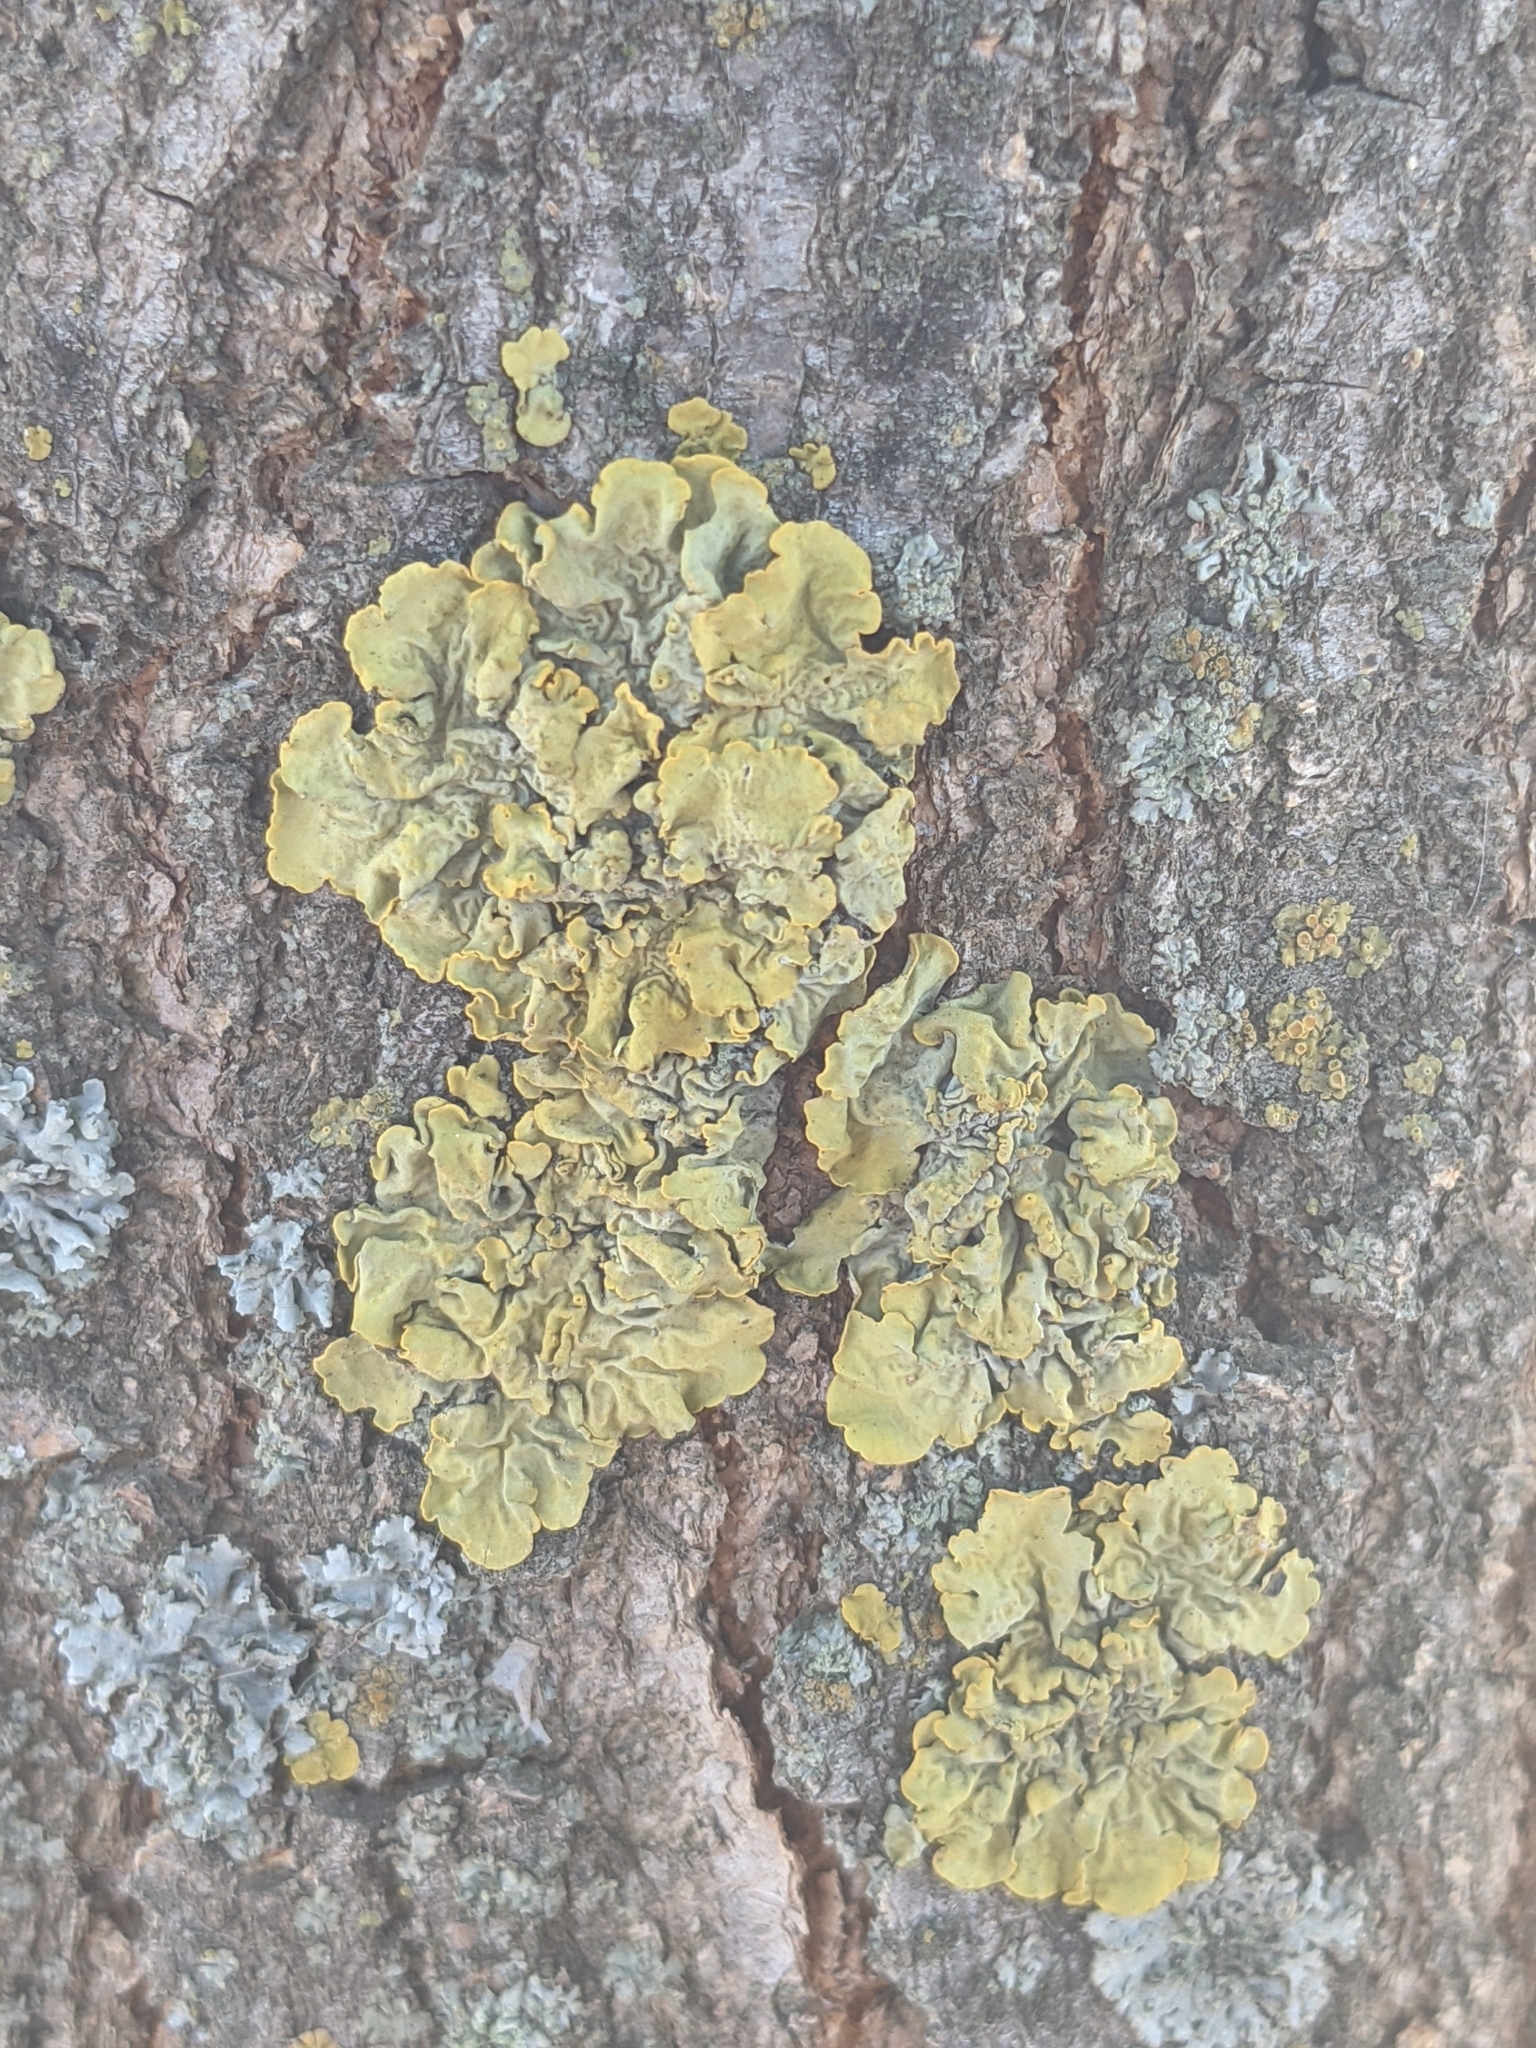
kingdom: Fungi
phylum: Ascomycota
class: Lecanoromycetes
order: Teloschistales
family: Teloschistaceae
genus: Xanthoria
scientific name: Xanthoria parietina
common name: Common orange lichen
